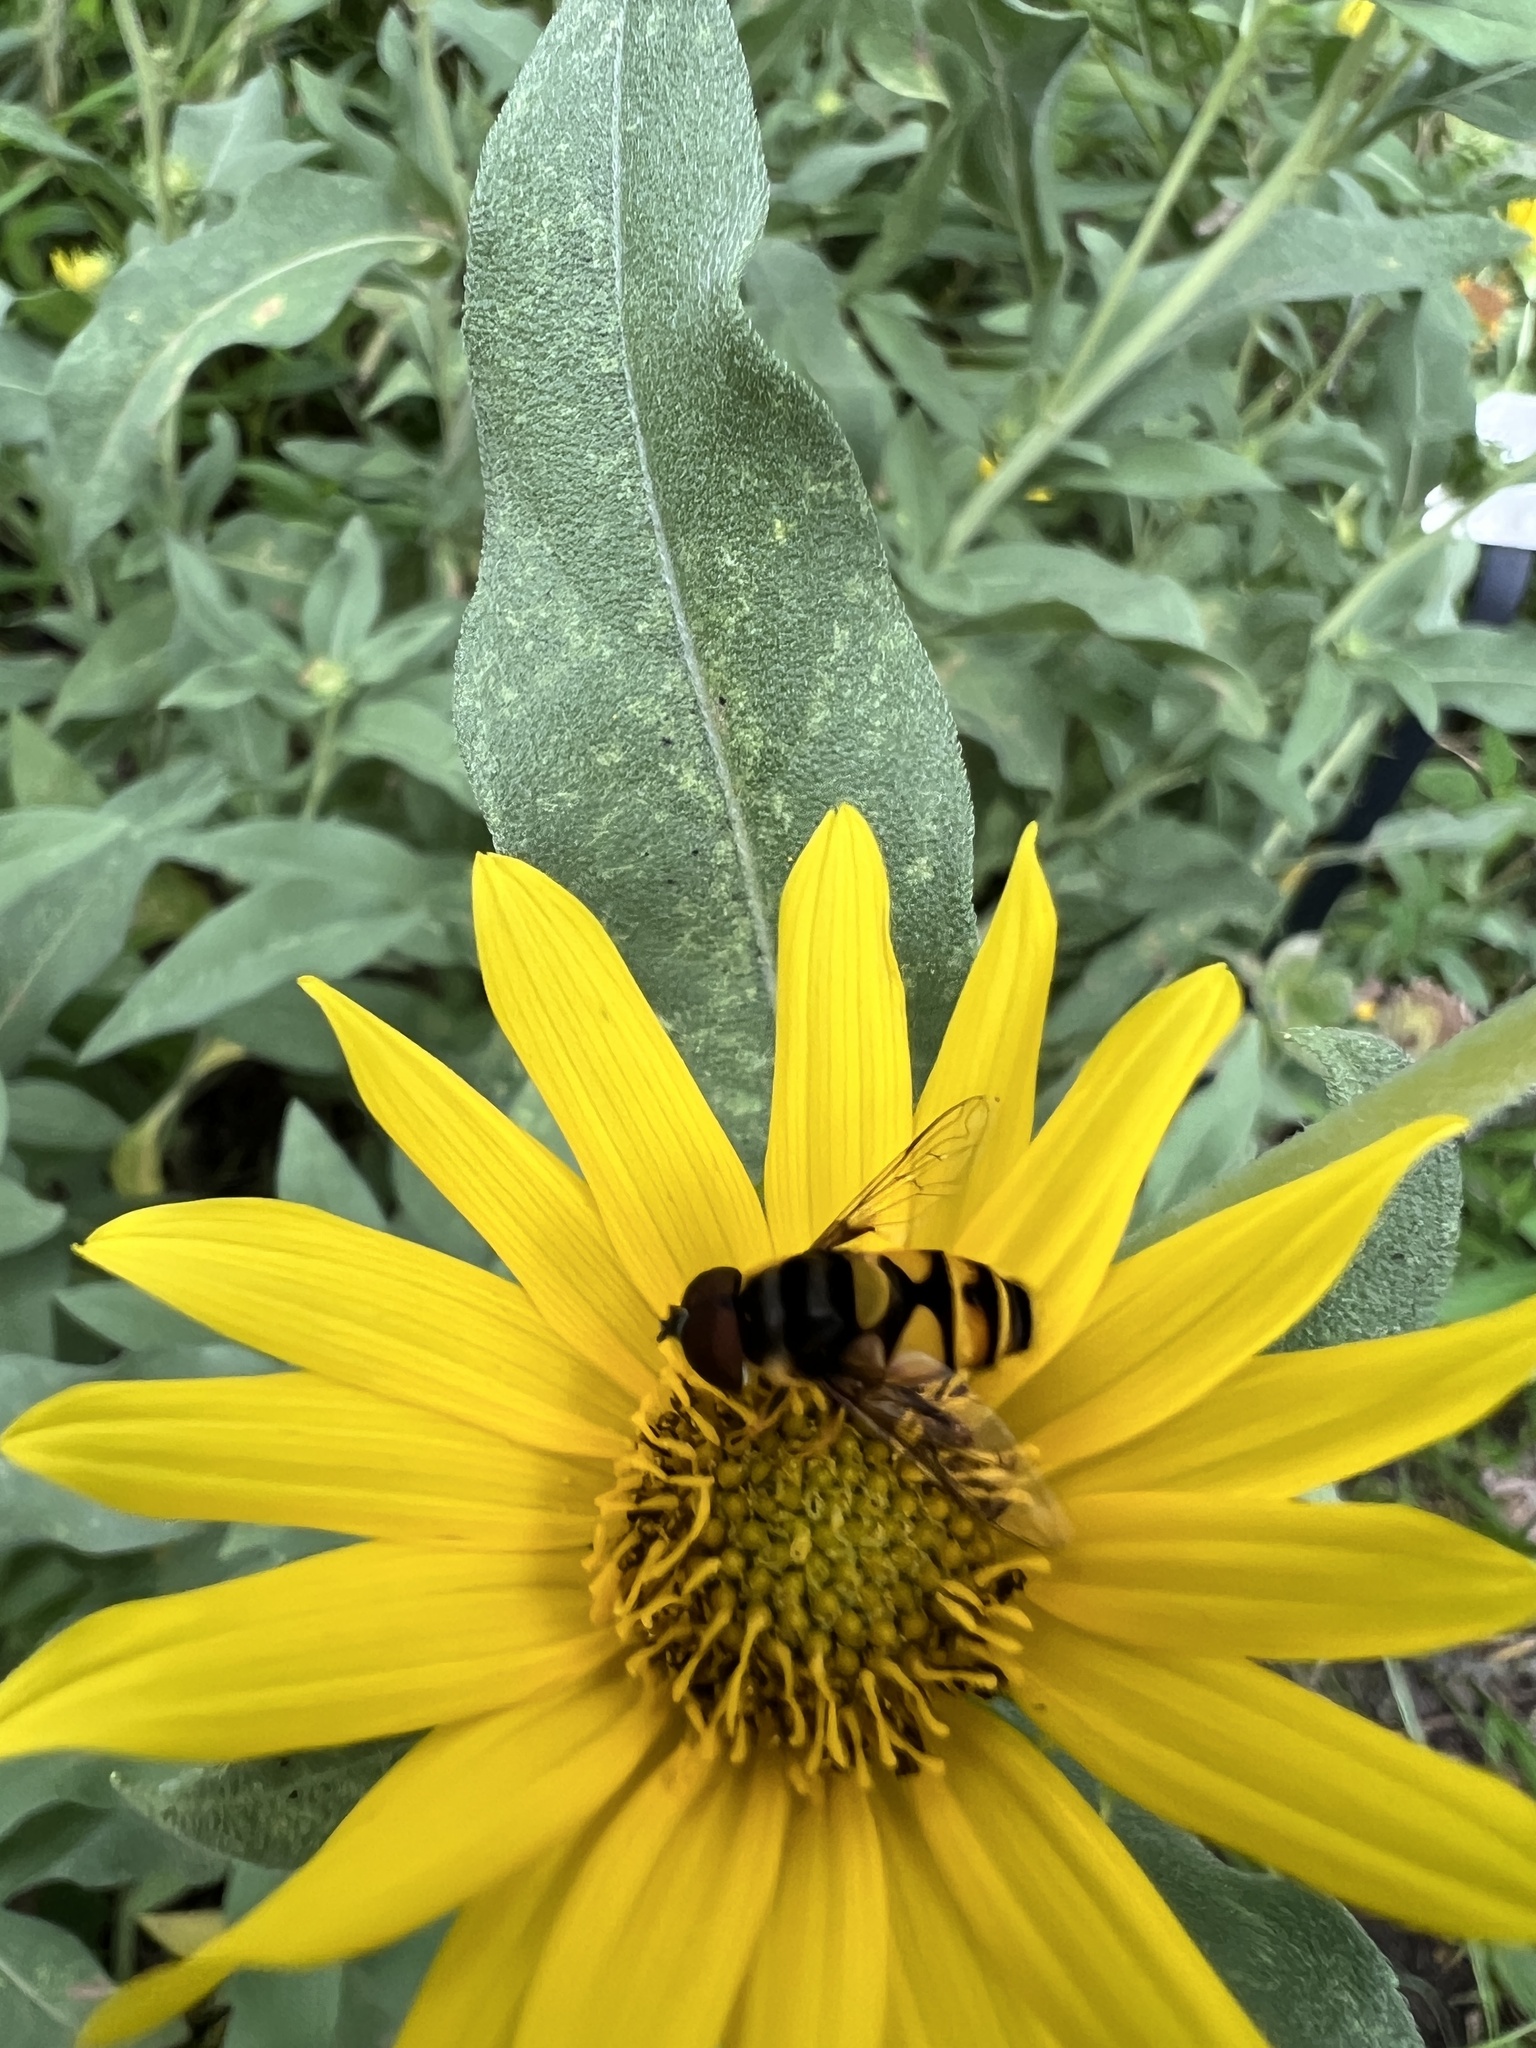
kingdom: Animalia
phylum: Arthropoda
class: Insecta
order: Diptera
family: Syrphidae
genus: Eristalis
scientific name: Eristalis transversa
